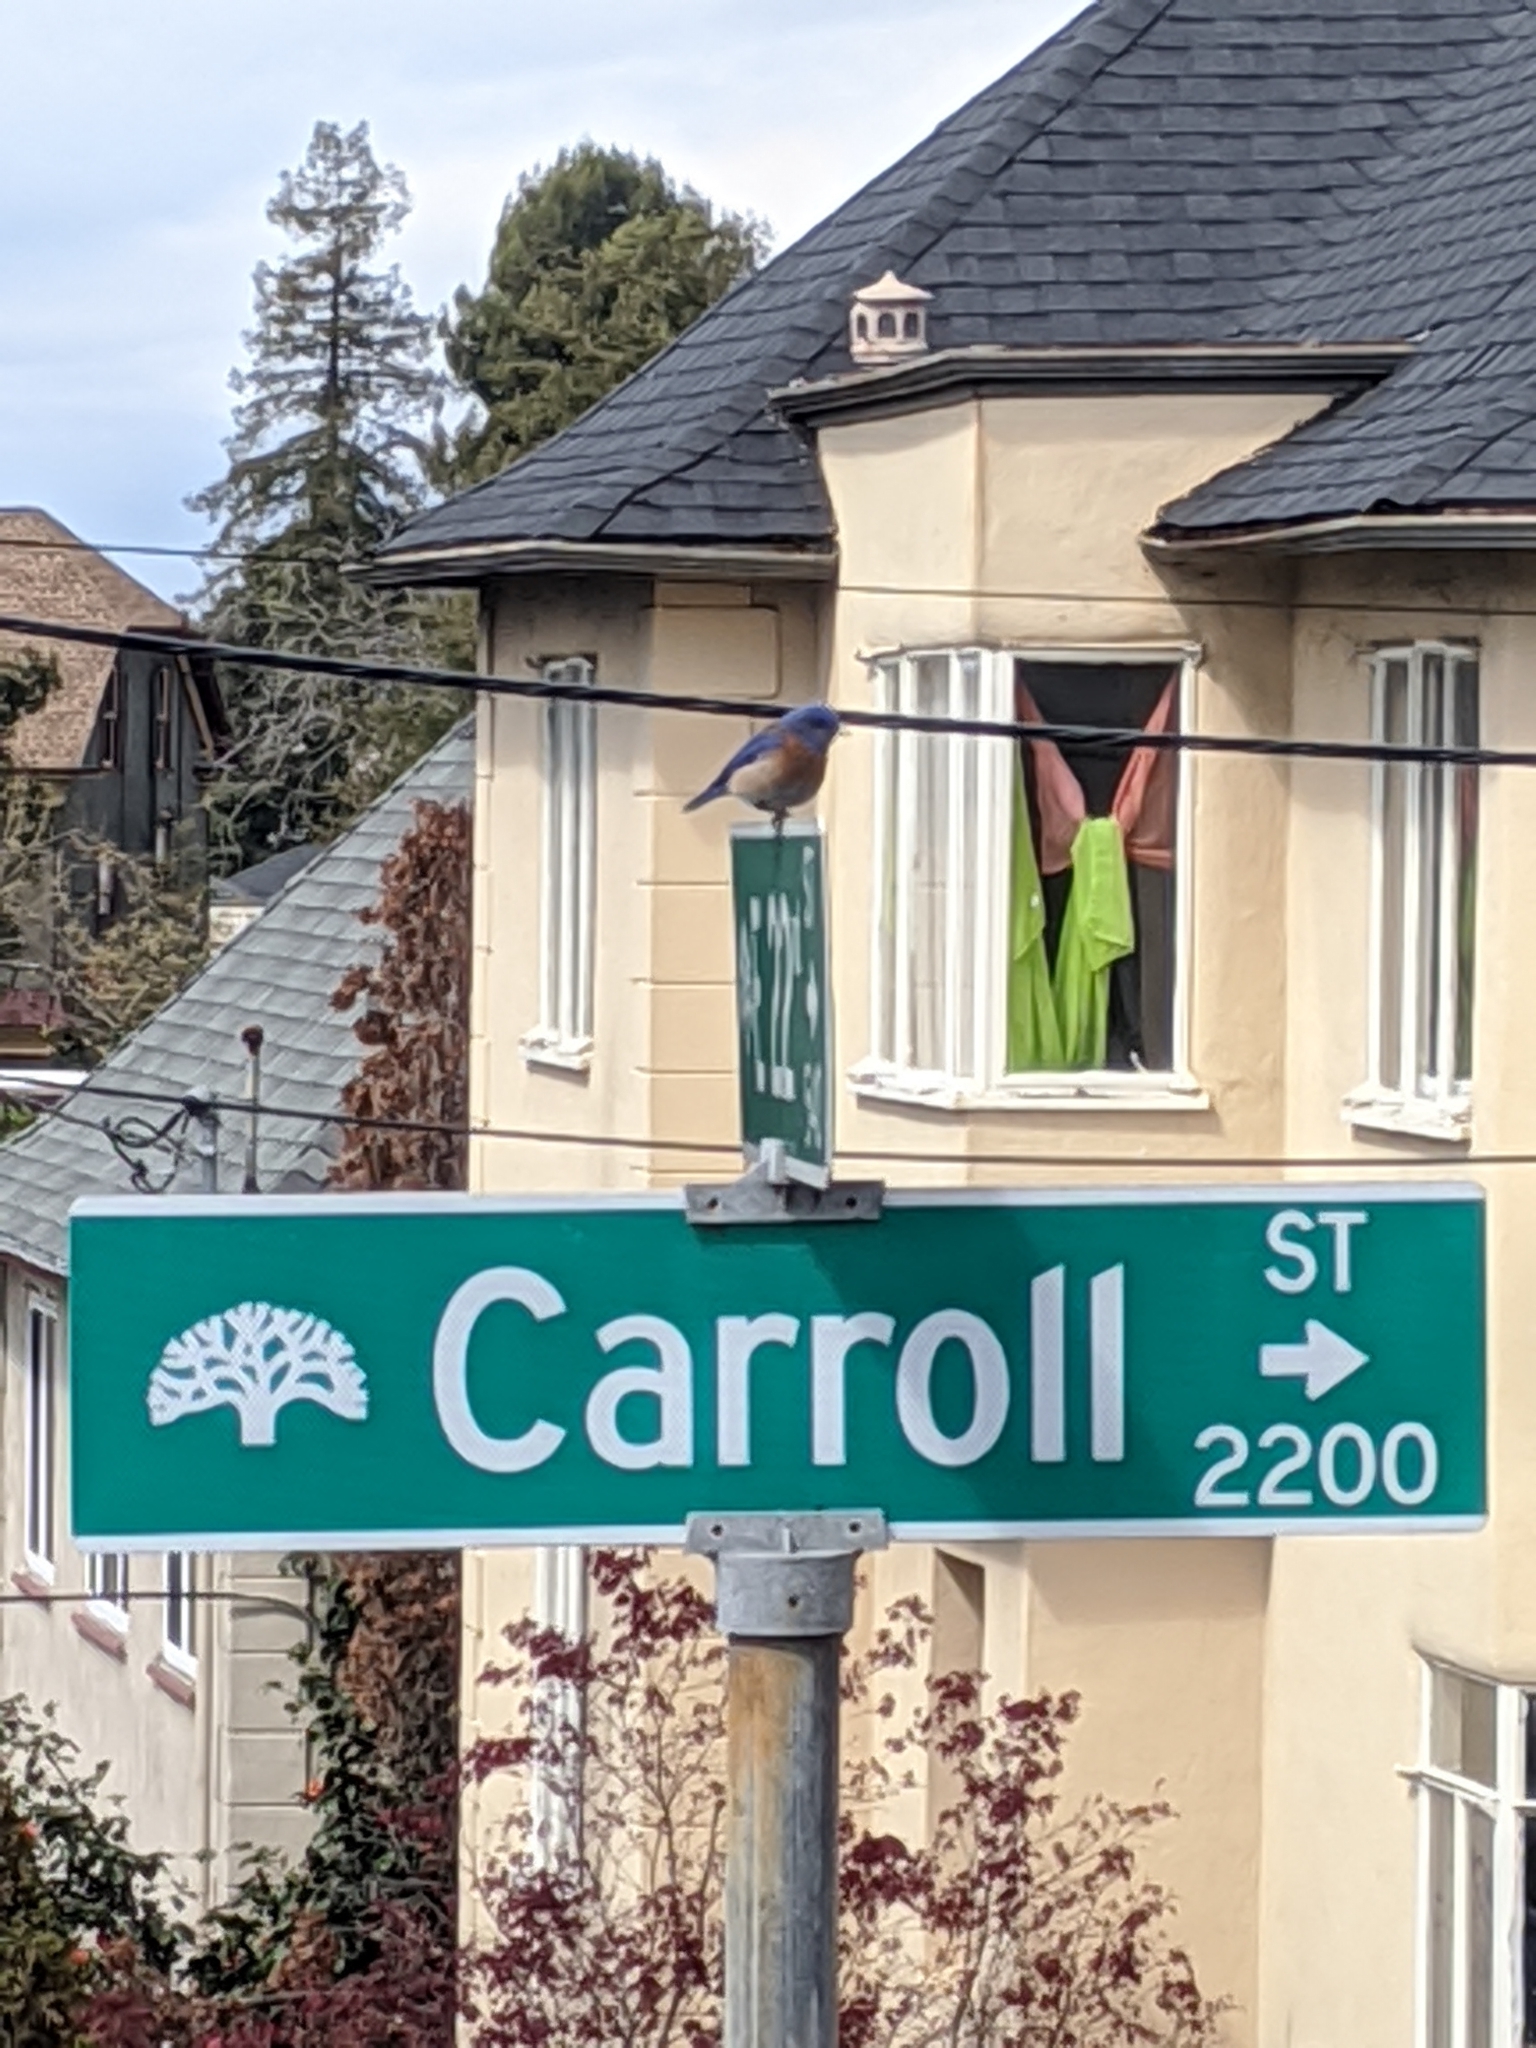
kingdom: Animalia
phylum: Chordata
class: Aves
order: Passeriformes
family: Turdidae
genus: Sialia
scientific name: Sialia mexicana
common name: Western bluebird
